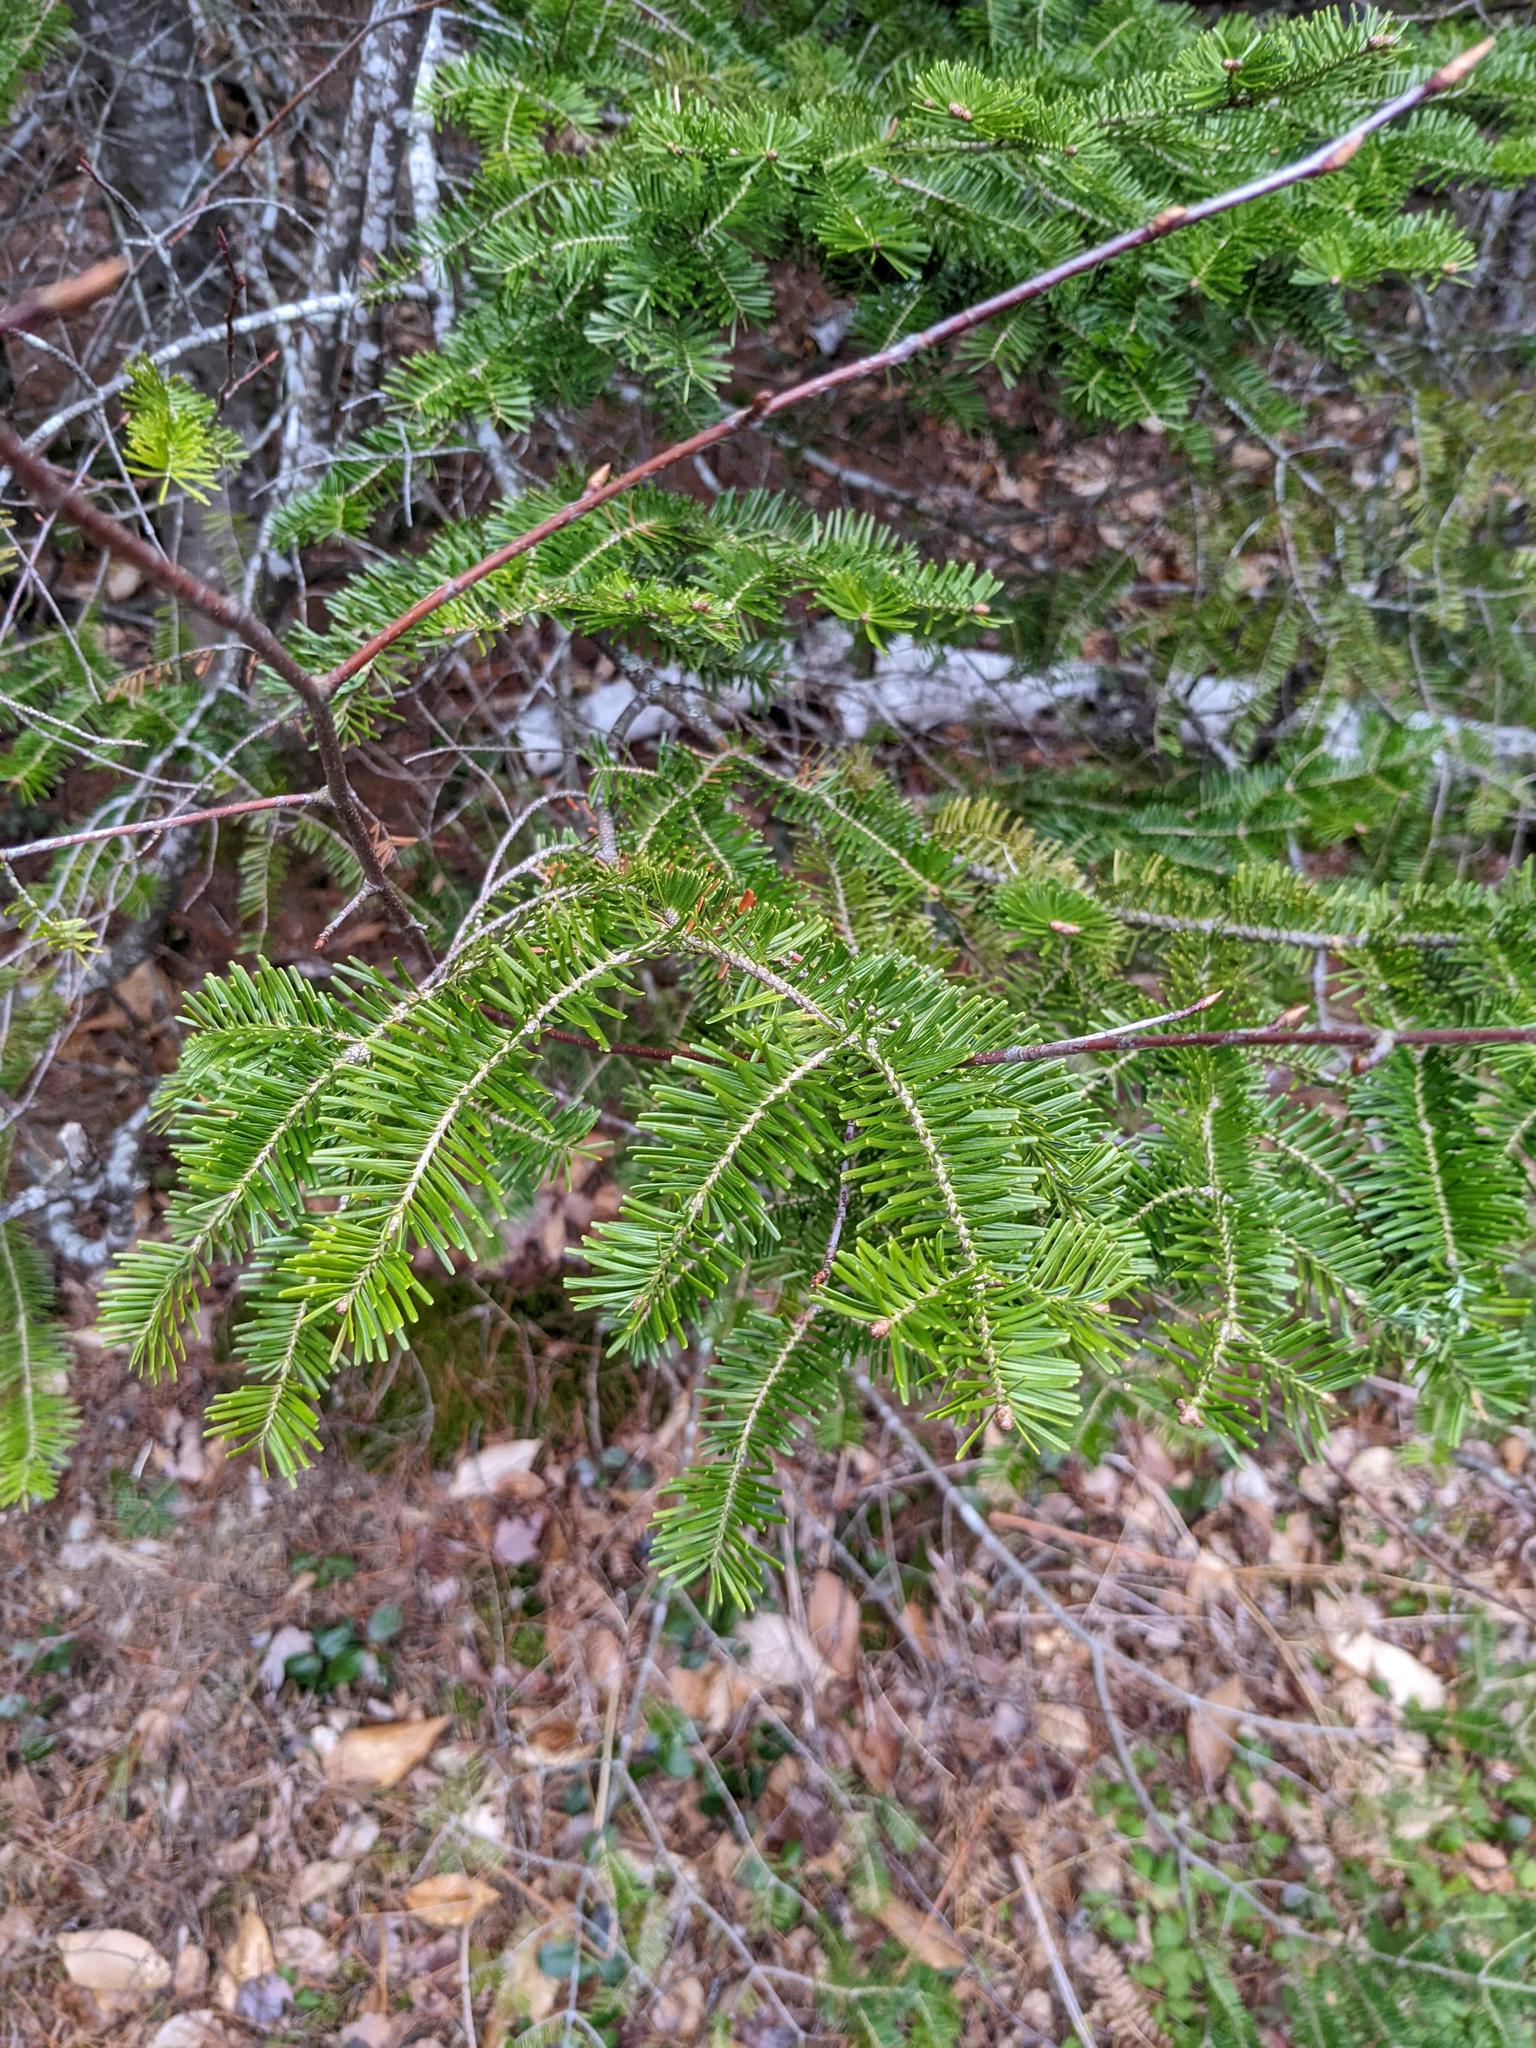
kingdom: Plantae
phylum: Tracheophyta
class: Pinopsida
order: Pinales
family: Pinaceae
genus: Abies
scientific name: Abies balsamea
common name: Balsam fir
